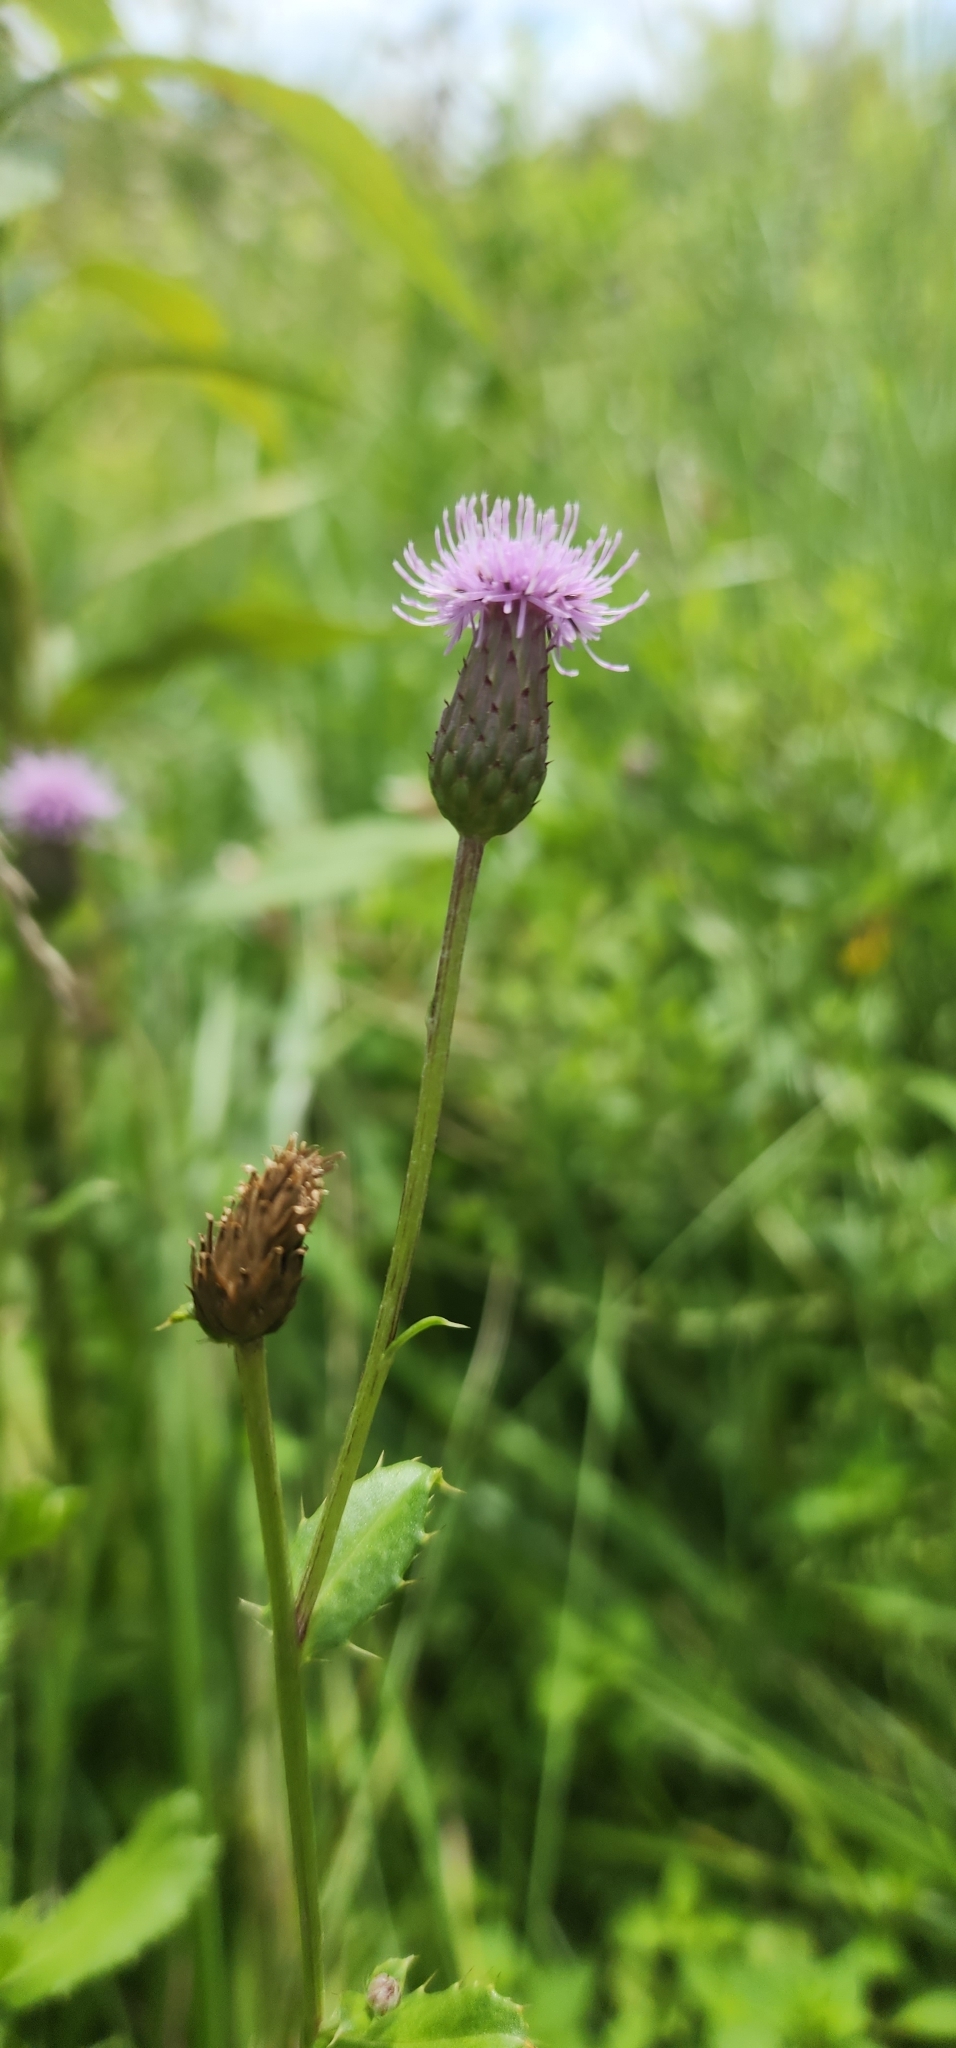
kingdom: Plantae
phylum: Tracheophyta
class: Magnoliopsida
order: Asterales
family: Asteraceae
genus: Cirsium
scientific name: Cirsium arvense
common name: Creeping thistle
